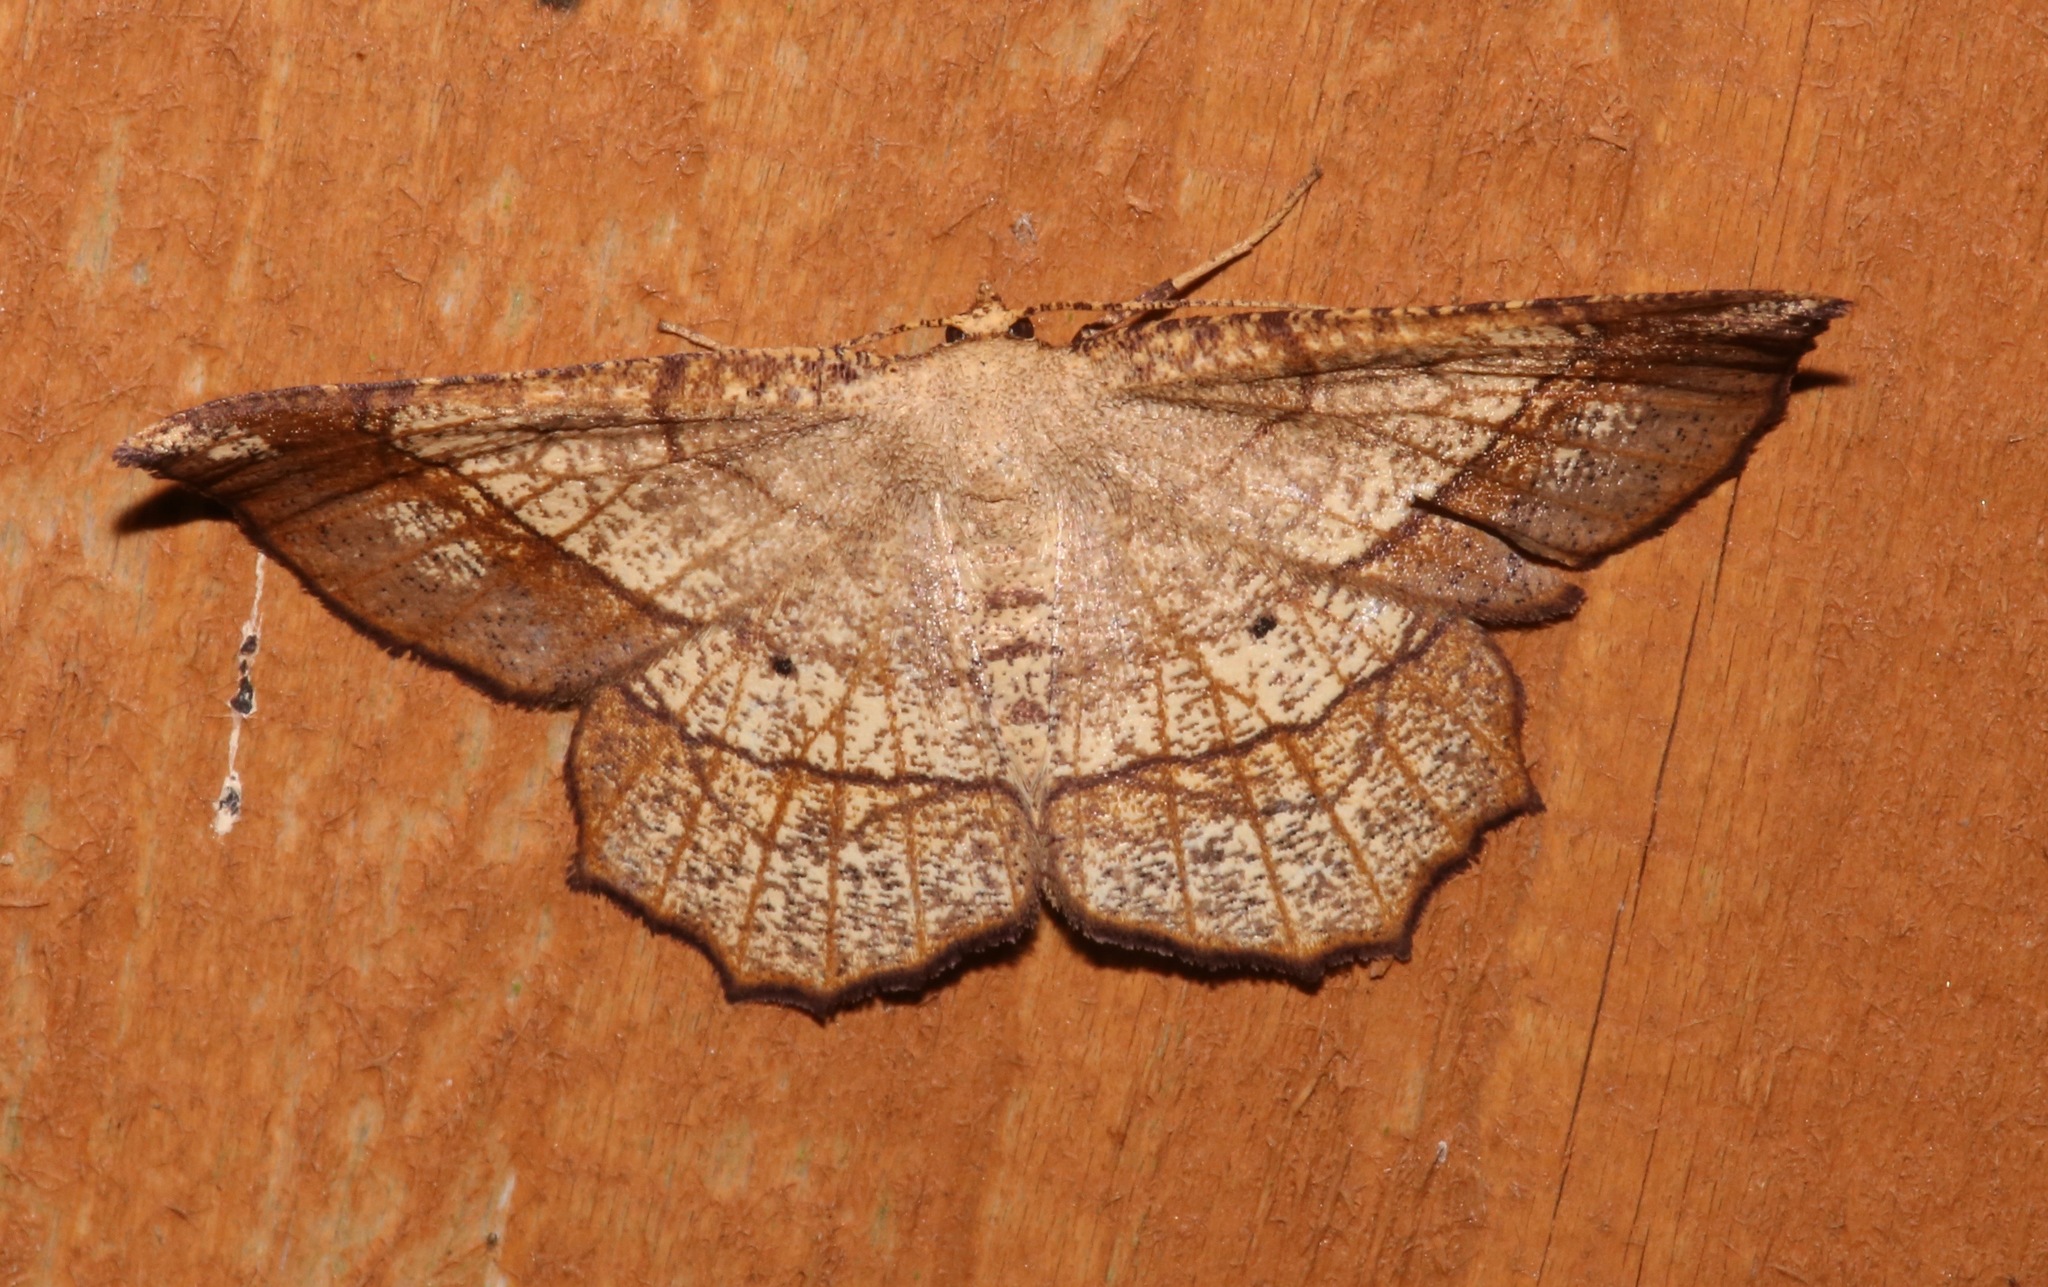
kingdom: Animalia
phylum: Arthropoda
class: Insecta
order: Lepidoptera
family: Geometridae
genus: Euchlaena
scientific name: Euchlaena madusaria
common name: Scrub euchlaena moth
